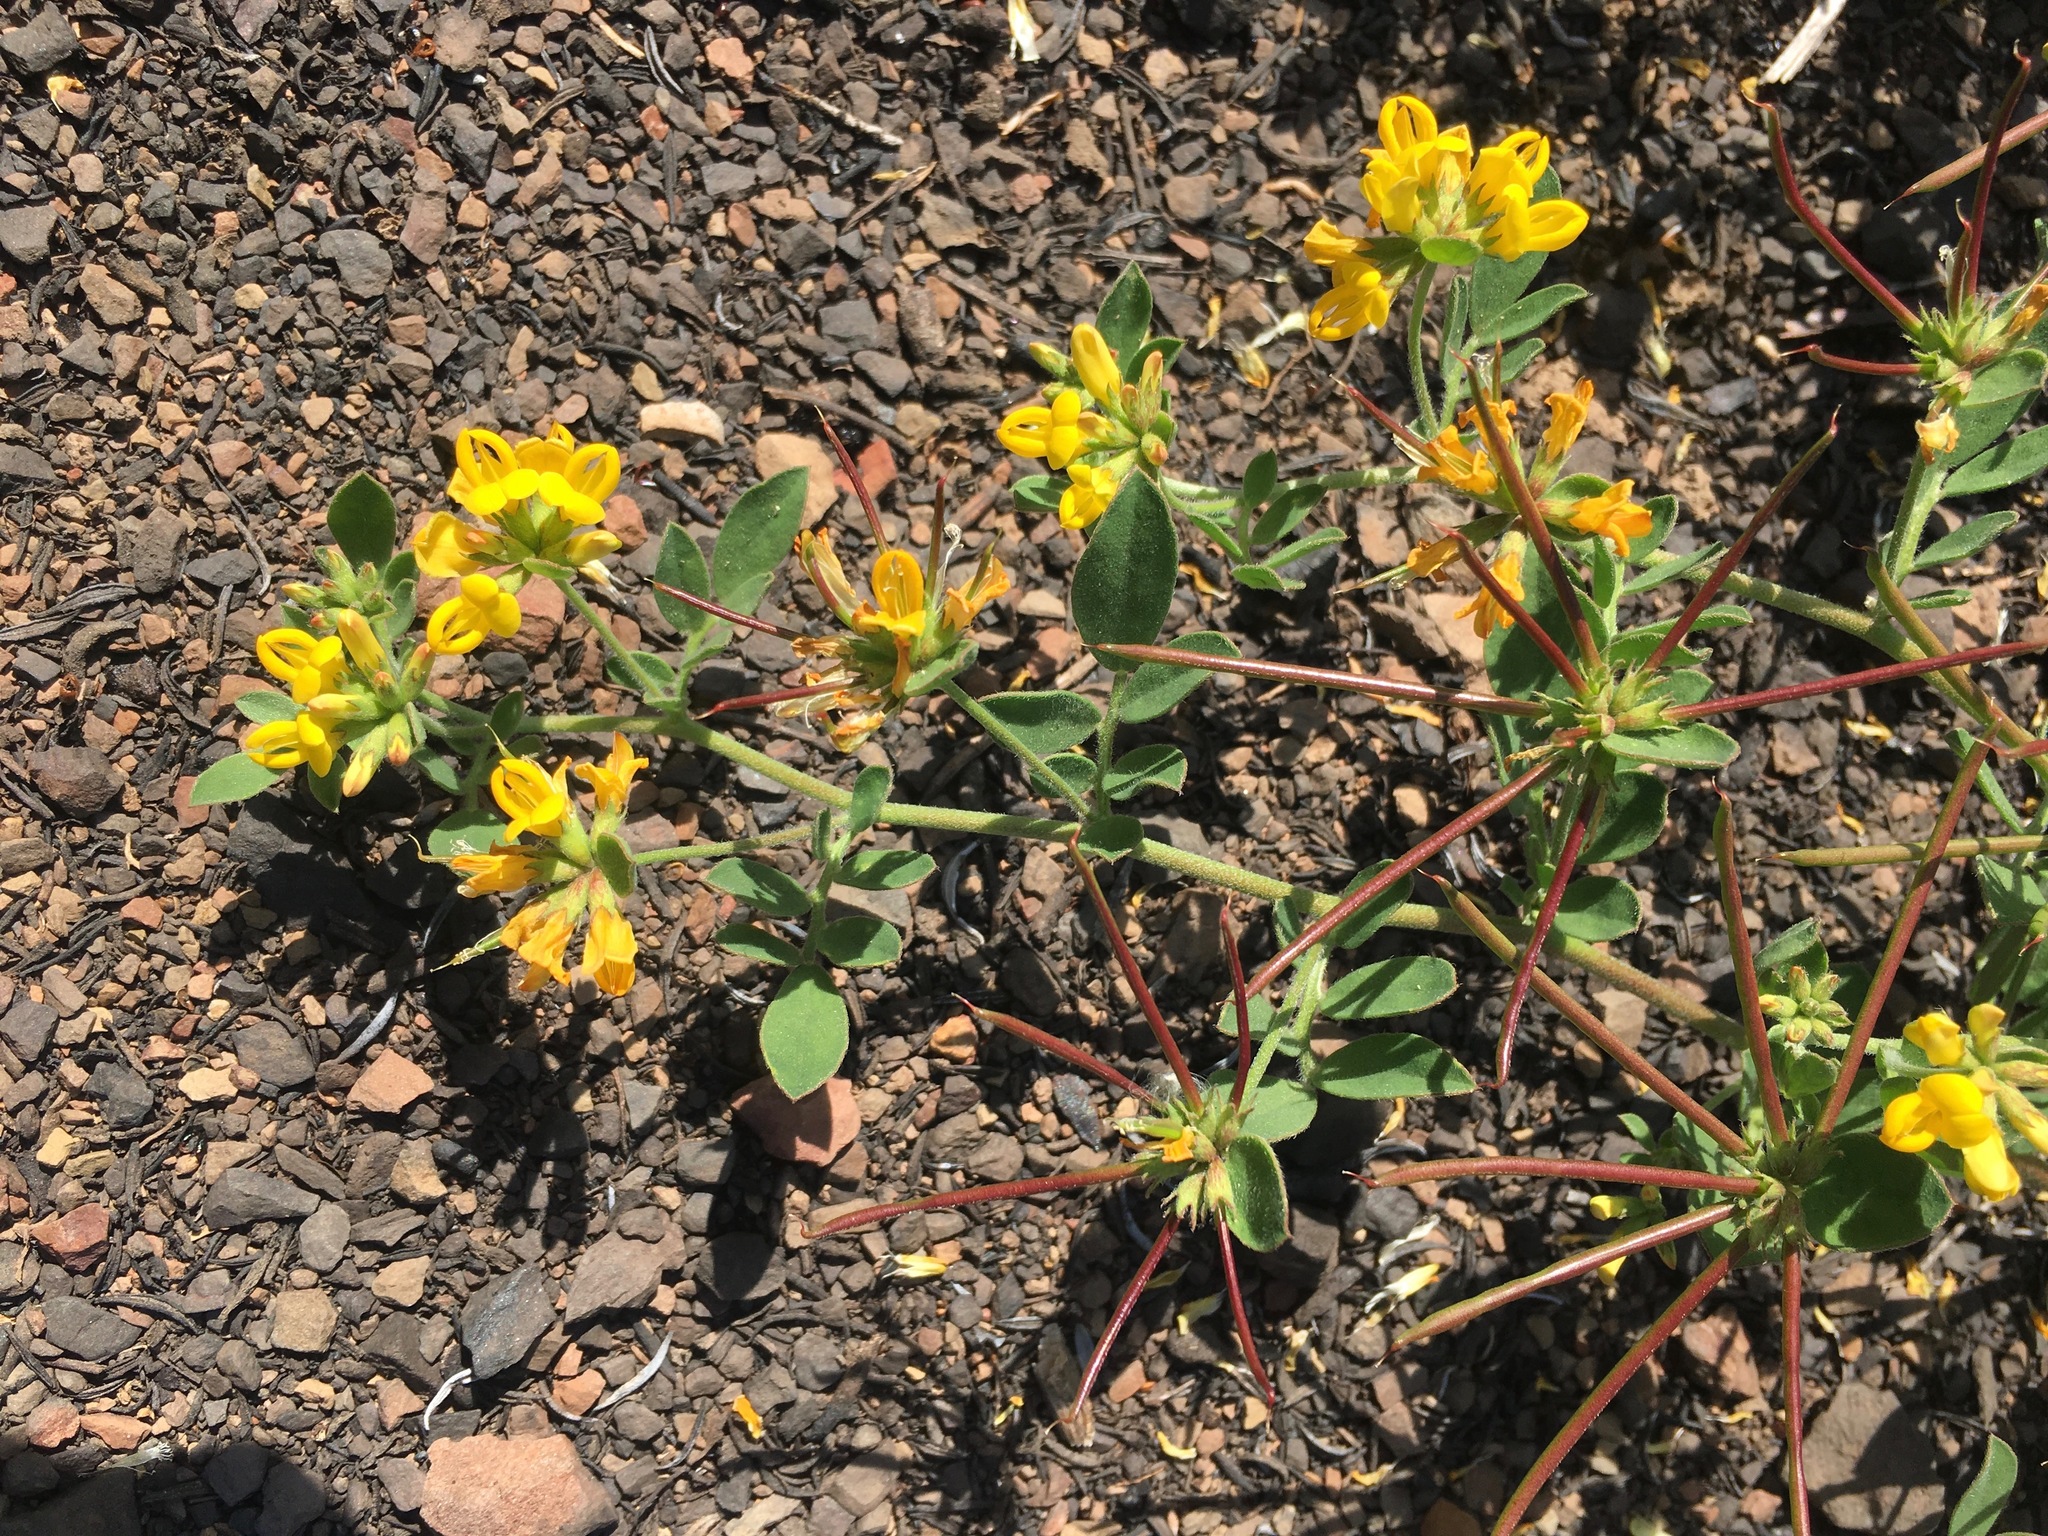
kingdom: Plantae
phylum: Tracheophyta
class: Magnoliopsida
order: Fabales
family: Fabaceae
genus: Acmispon
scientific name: Acmispon maritimus
